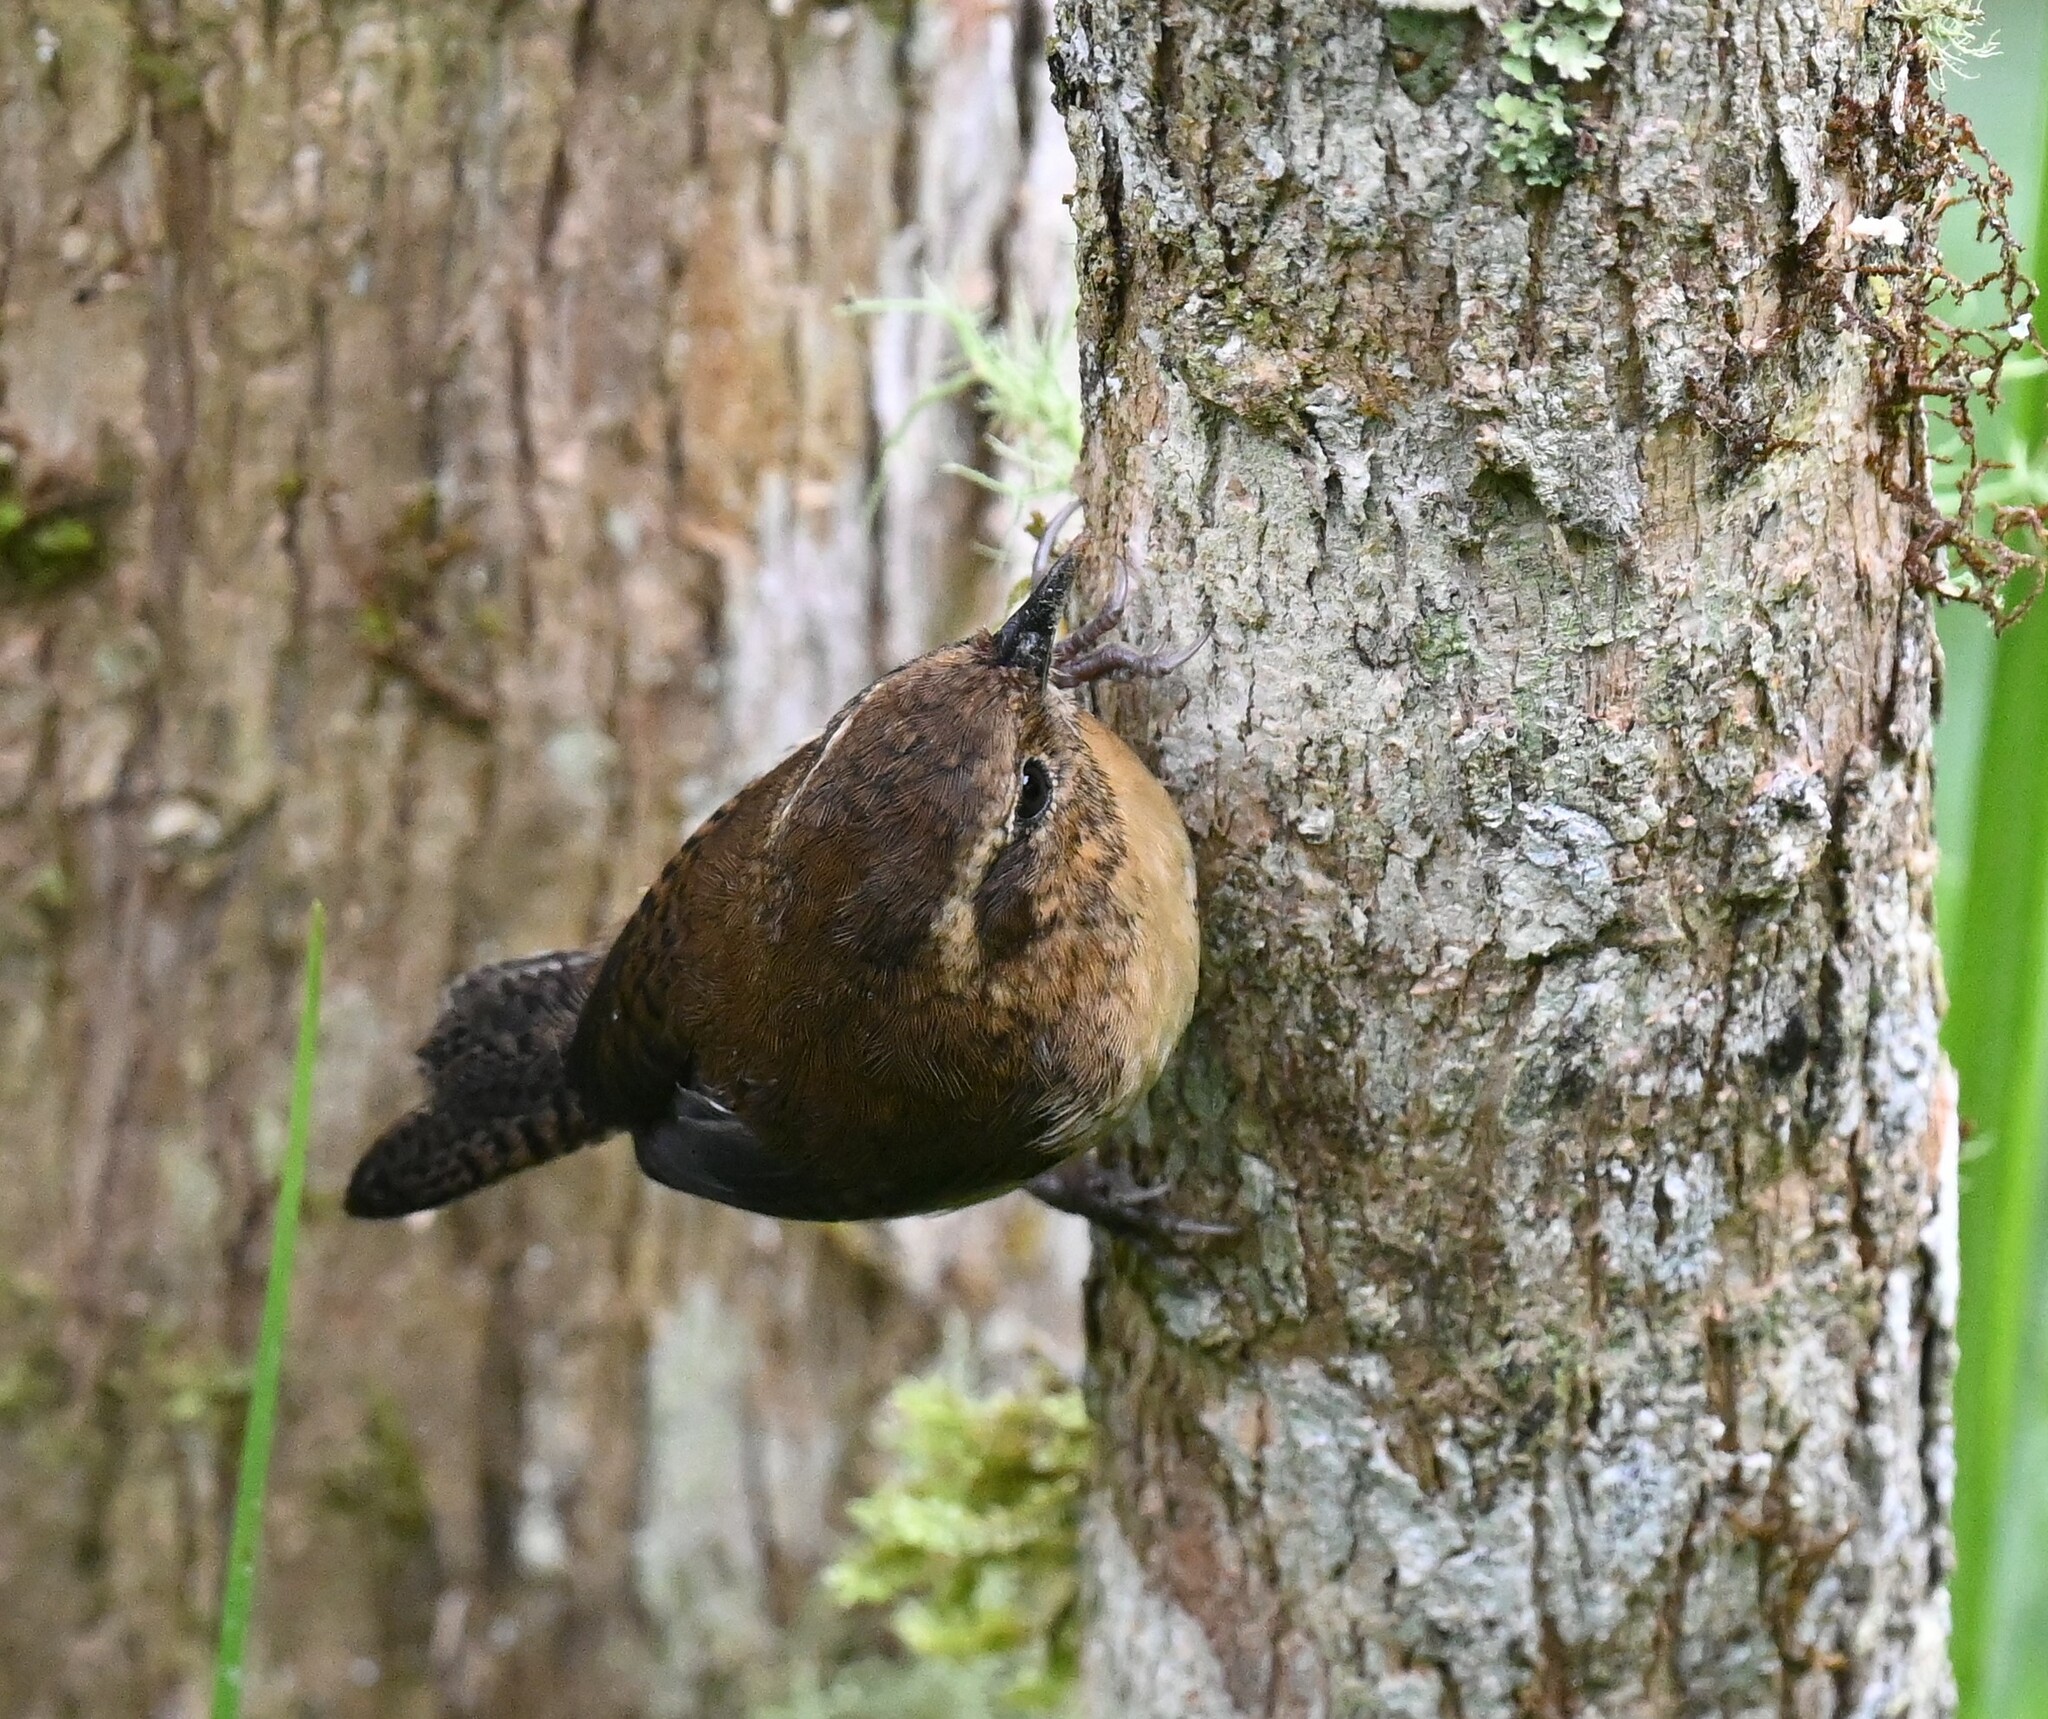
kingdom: Animalia
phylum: Chordata
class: Aves
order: Passeriformes
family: Troglodytidae
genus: Troglodytes
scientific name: Troglodytes solstitialis
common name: Mountain wren
